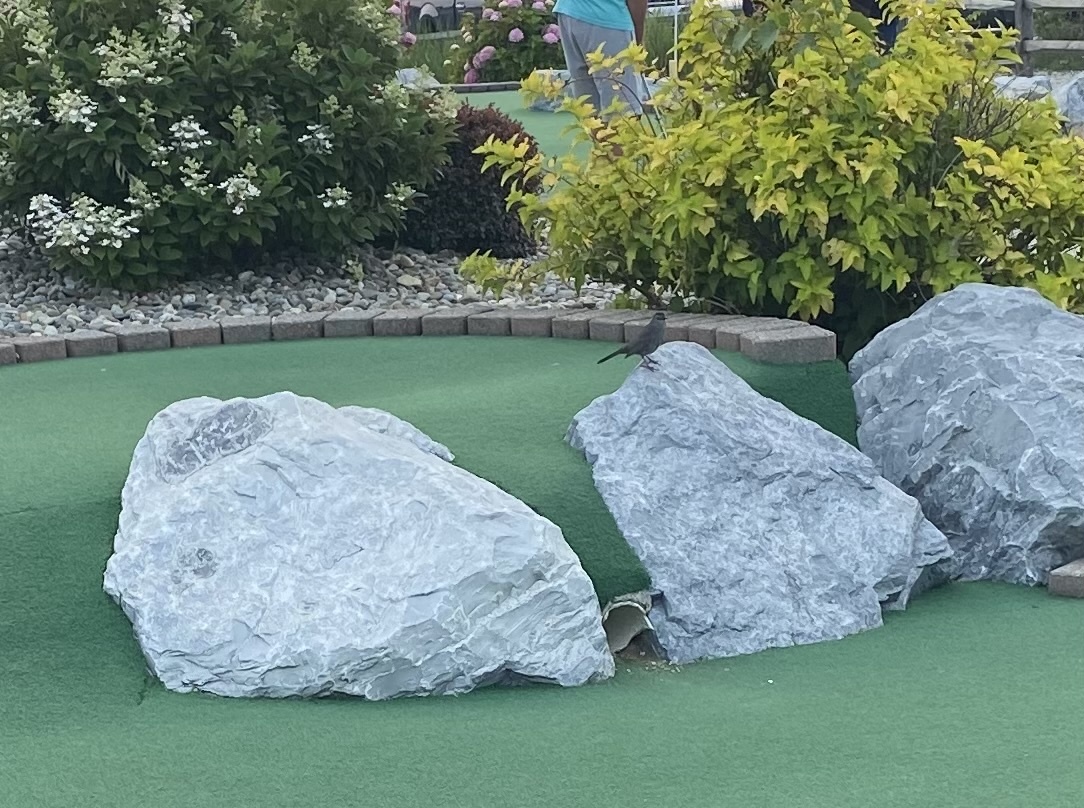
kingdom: Animalia
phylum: Chordata
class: Aves
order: Passeriformes
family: Mimidae
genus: Dumetella
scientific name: Dumetella carolinensis
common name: Gray catbird
